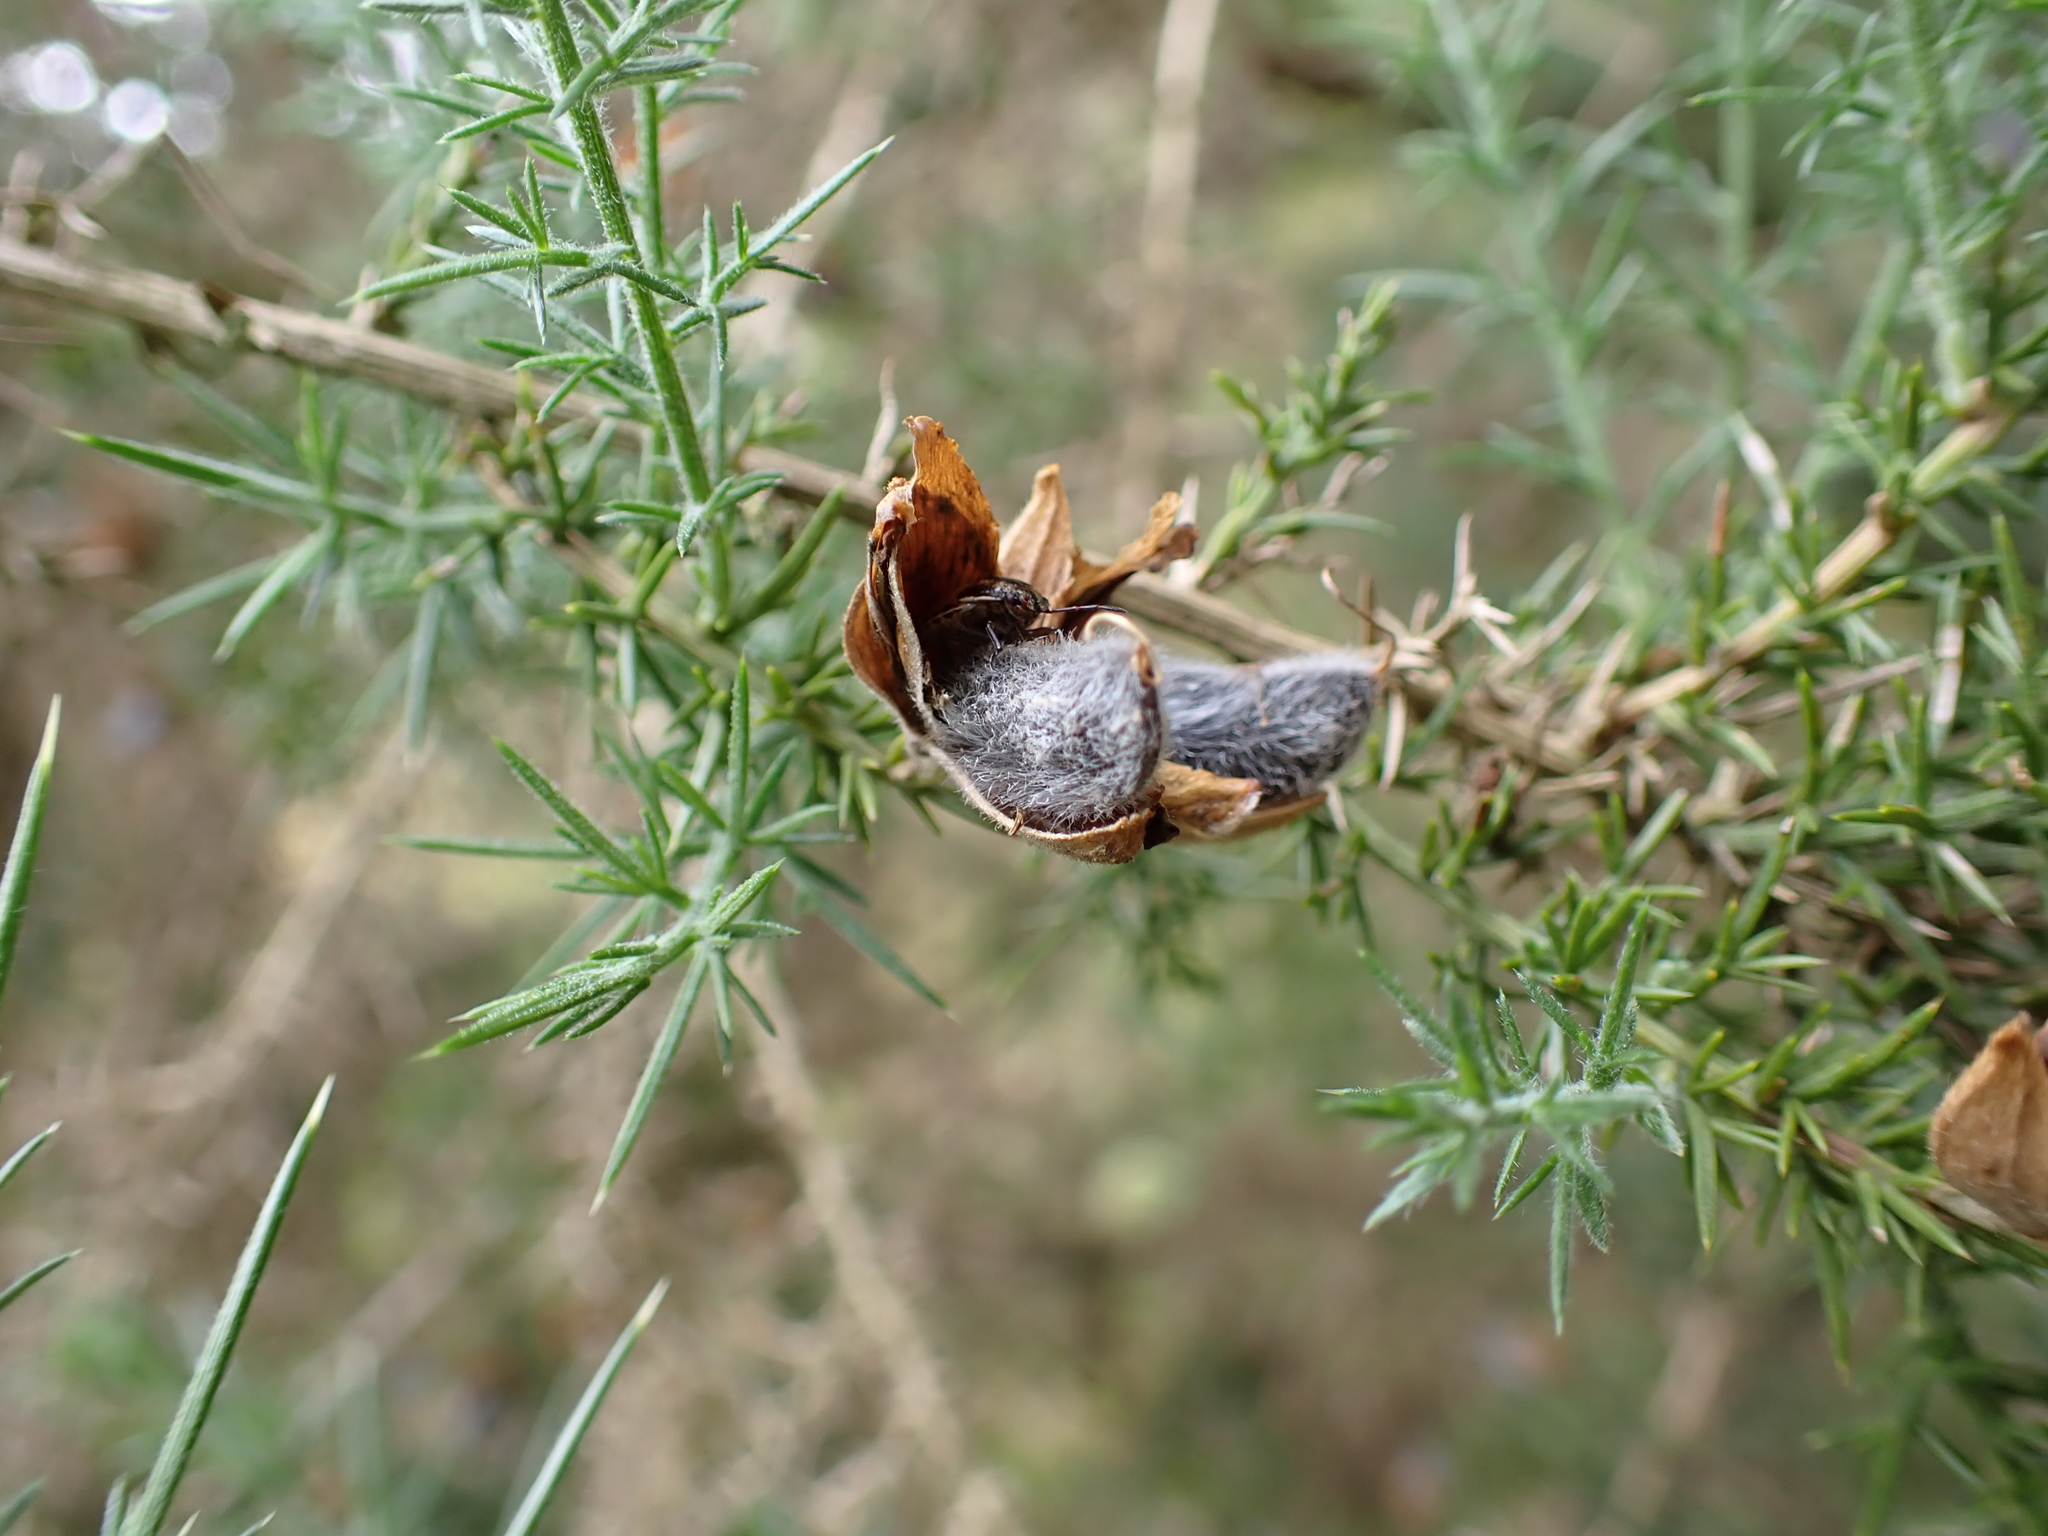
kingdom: Plantae
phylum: Tracheophyta
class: Magnoliopsida
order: Fabales
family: Fabaceae
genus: Ulex
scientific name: Ulex europaeus
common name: Common gorse
